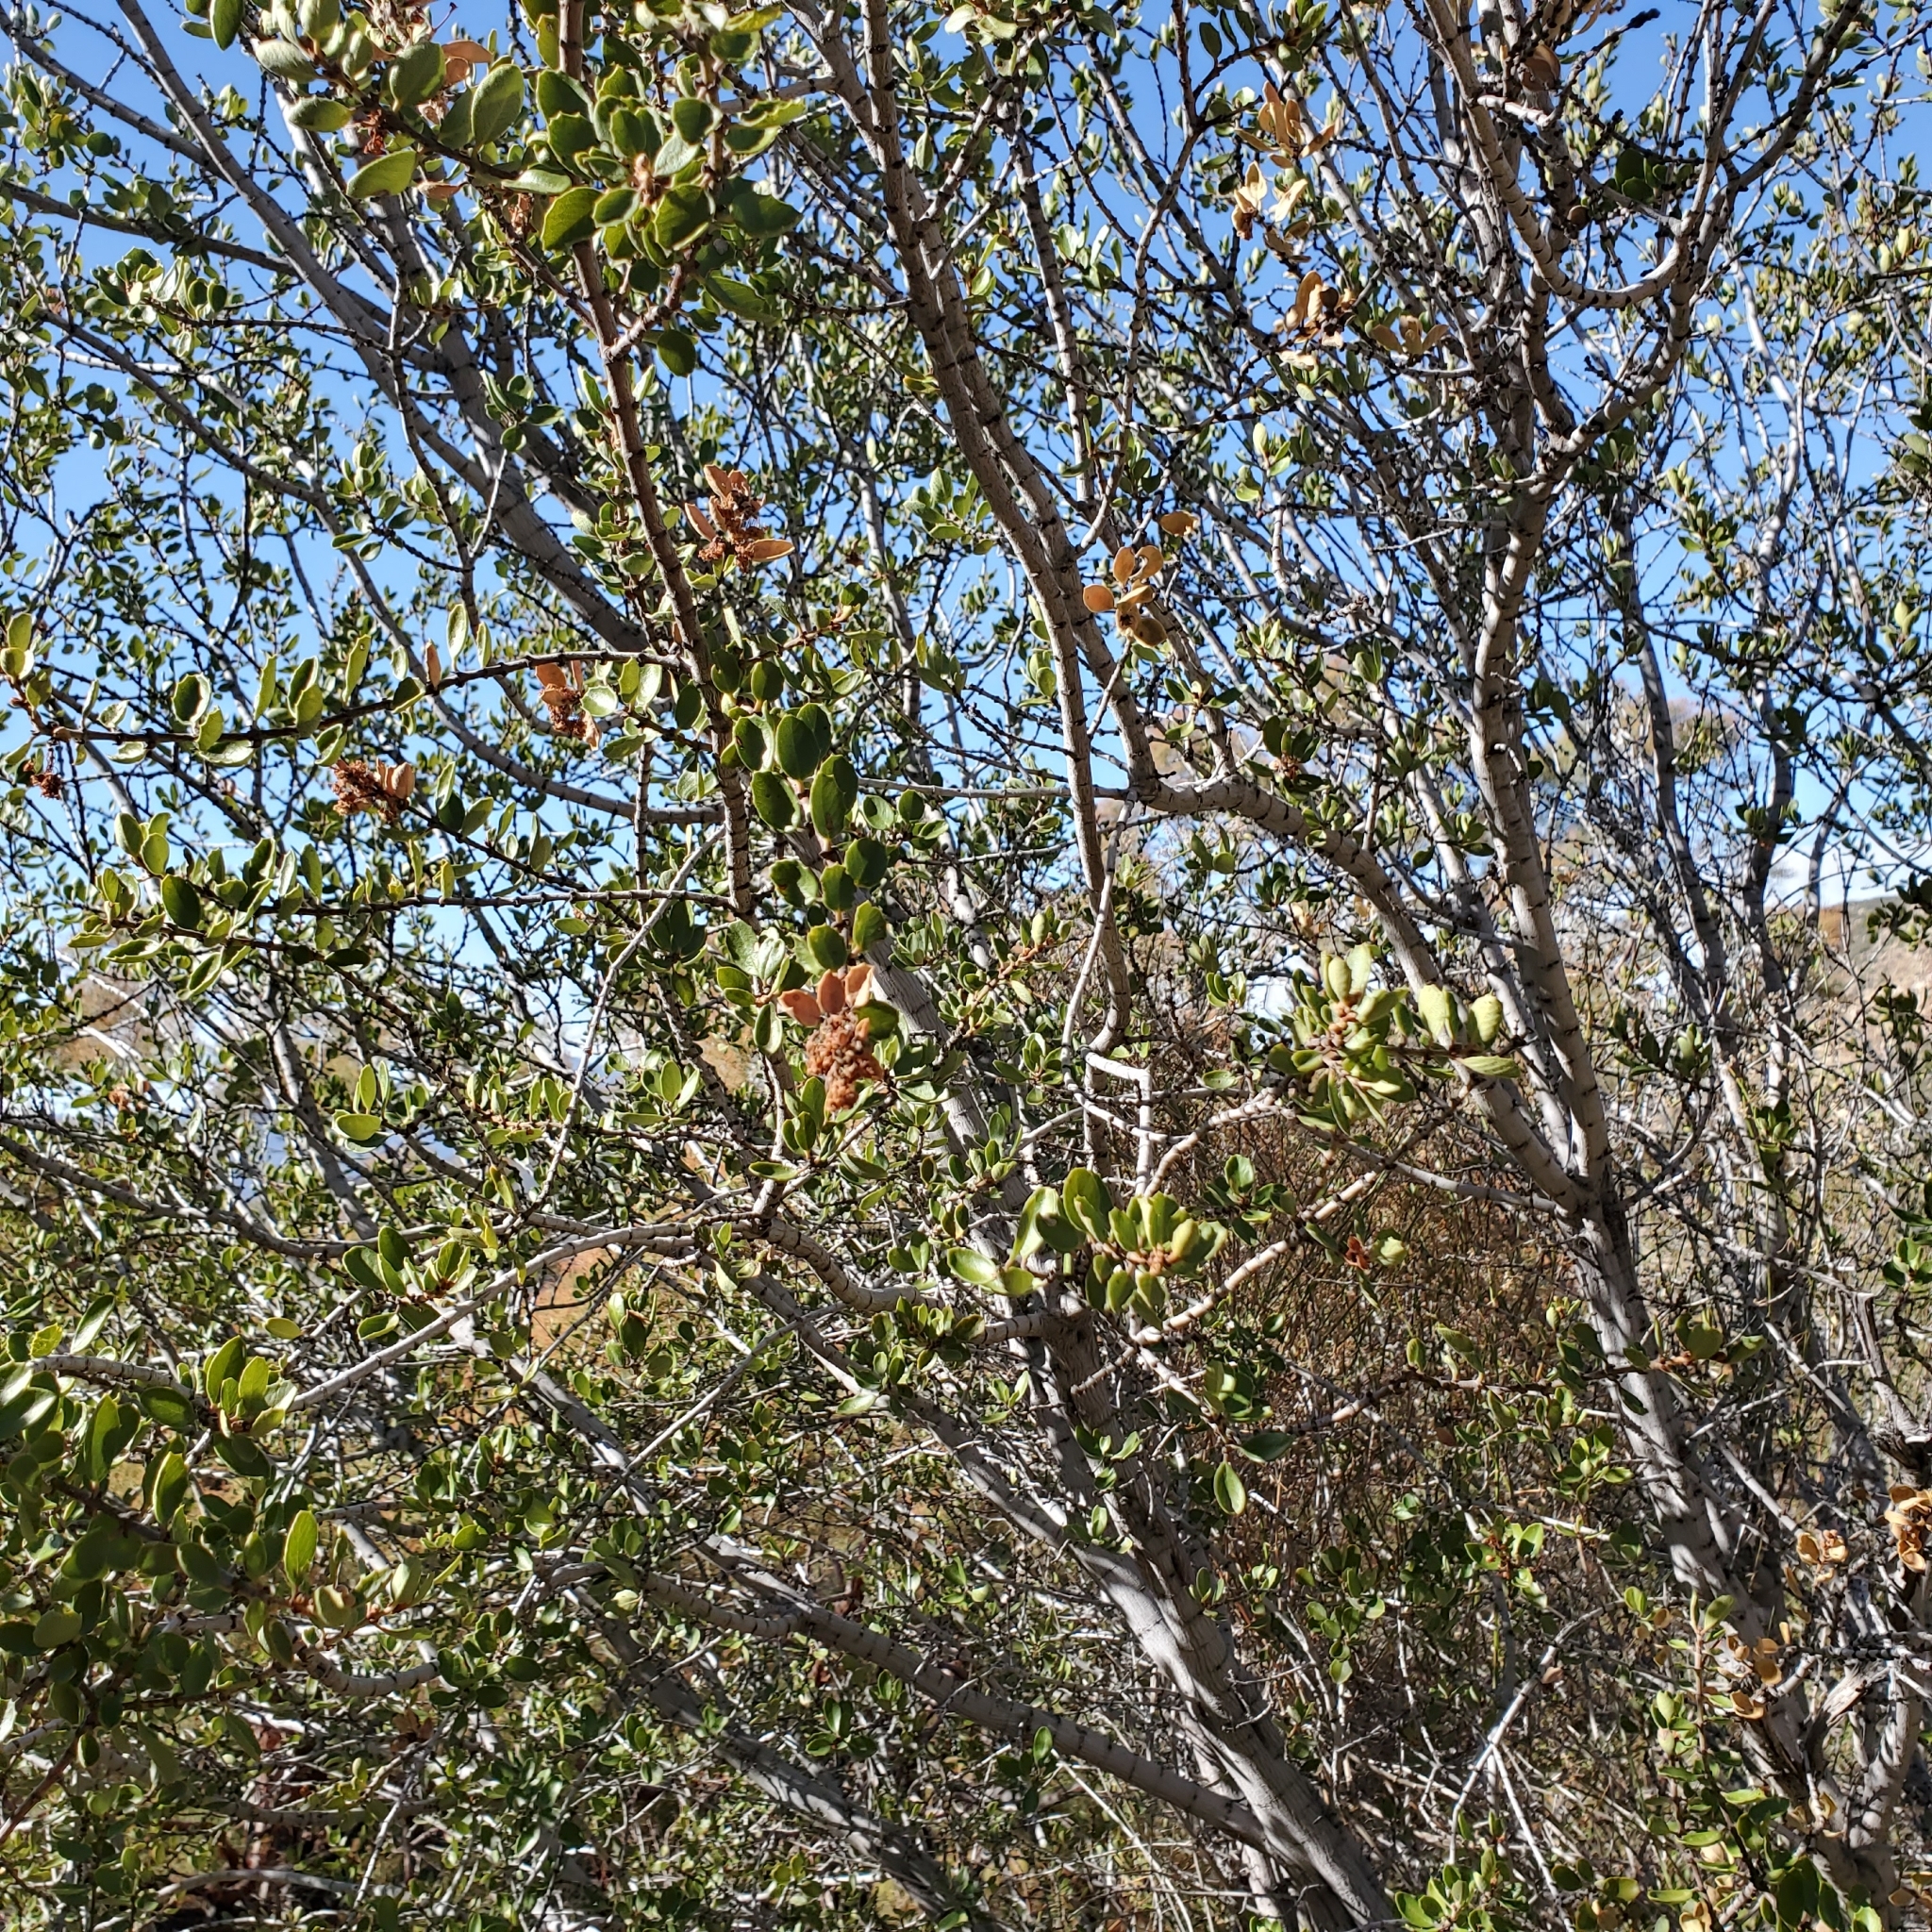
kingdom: Plantae
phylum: Tracheophyta
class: Magnoliopsida
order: Rosales
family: Rhamnaceae
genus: Ceanothus
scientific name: Ceanothus perplexans
